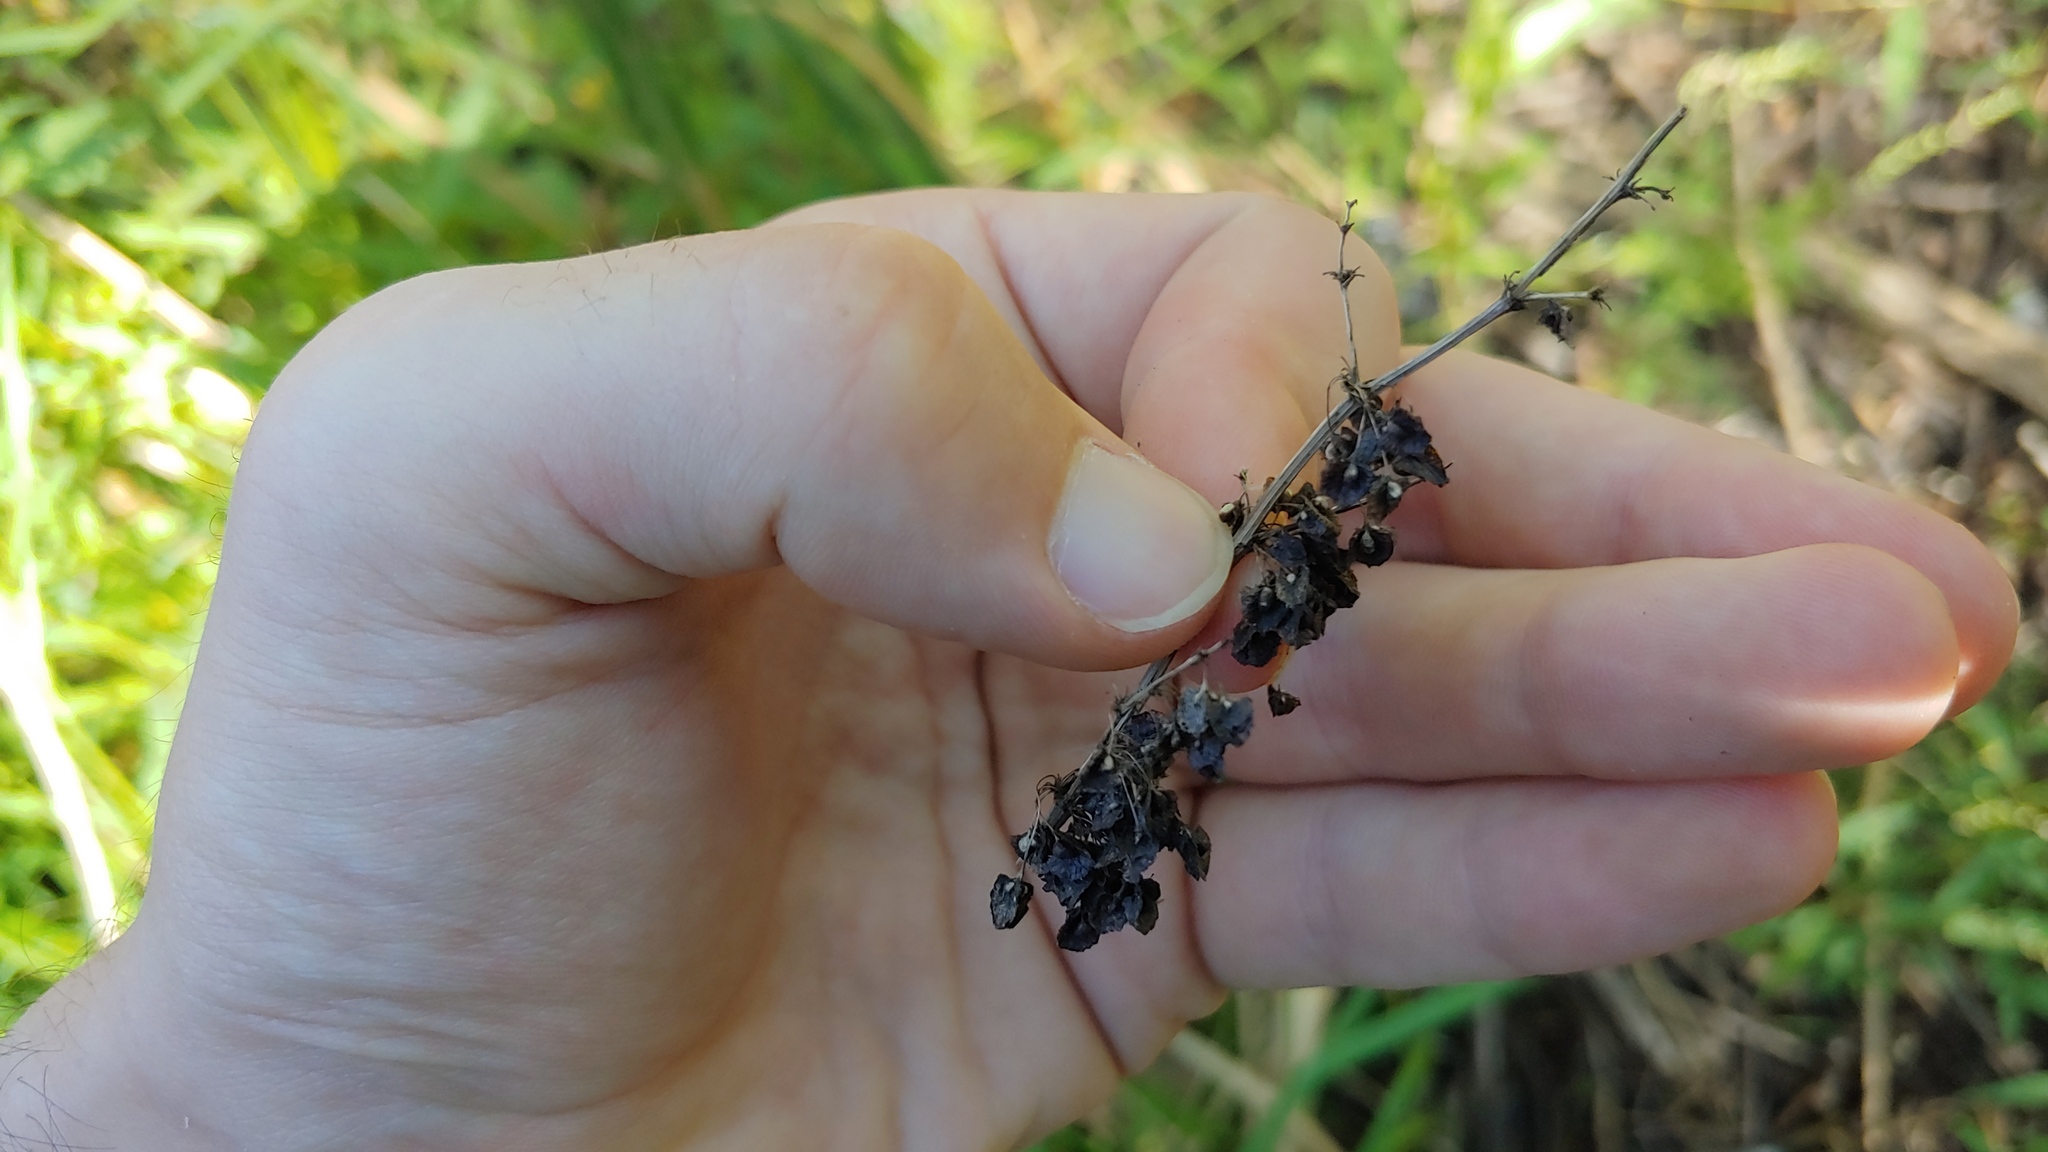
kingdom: Plantae
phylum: Tracheophyta
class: Magnoliopsida
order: Caryophyllales
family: Polygonaceae
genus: Rumex
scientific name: Rumex verticillatus
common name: Swamp dock
